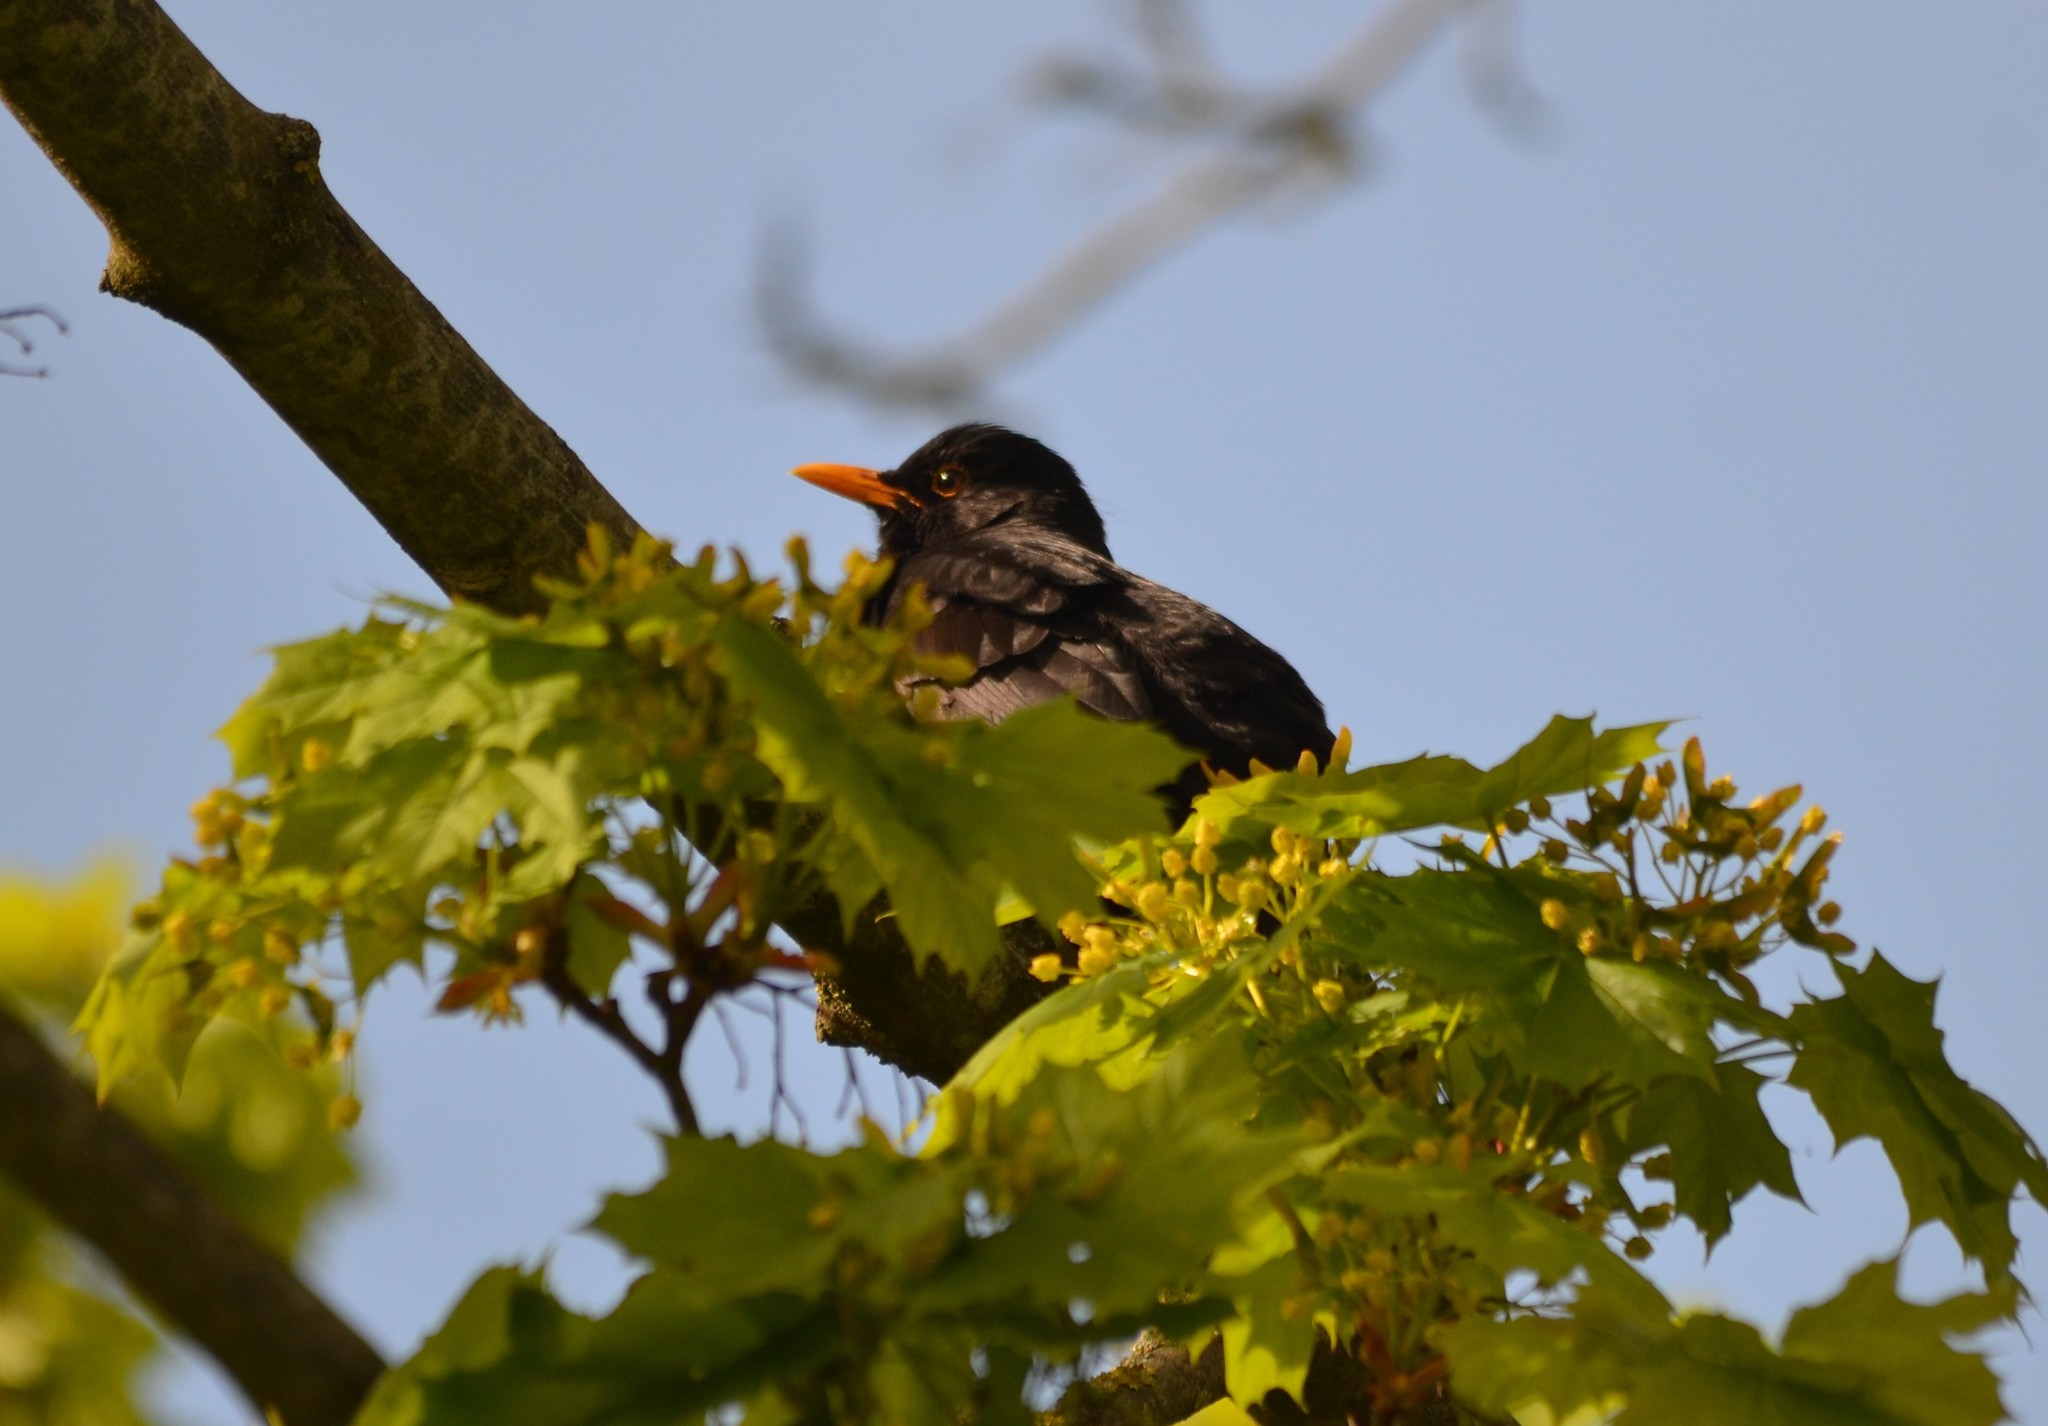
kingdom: Animalia
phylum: Chordata
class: Aves
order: Passeriformes
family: Turdidae
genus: Turdus
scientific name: Turdus merula
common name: Common blackbird
